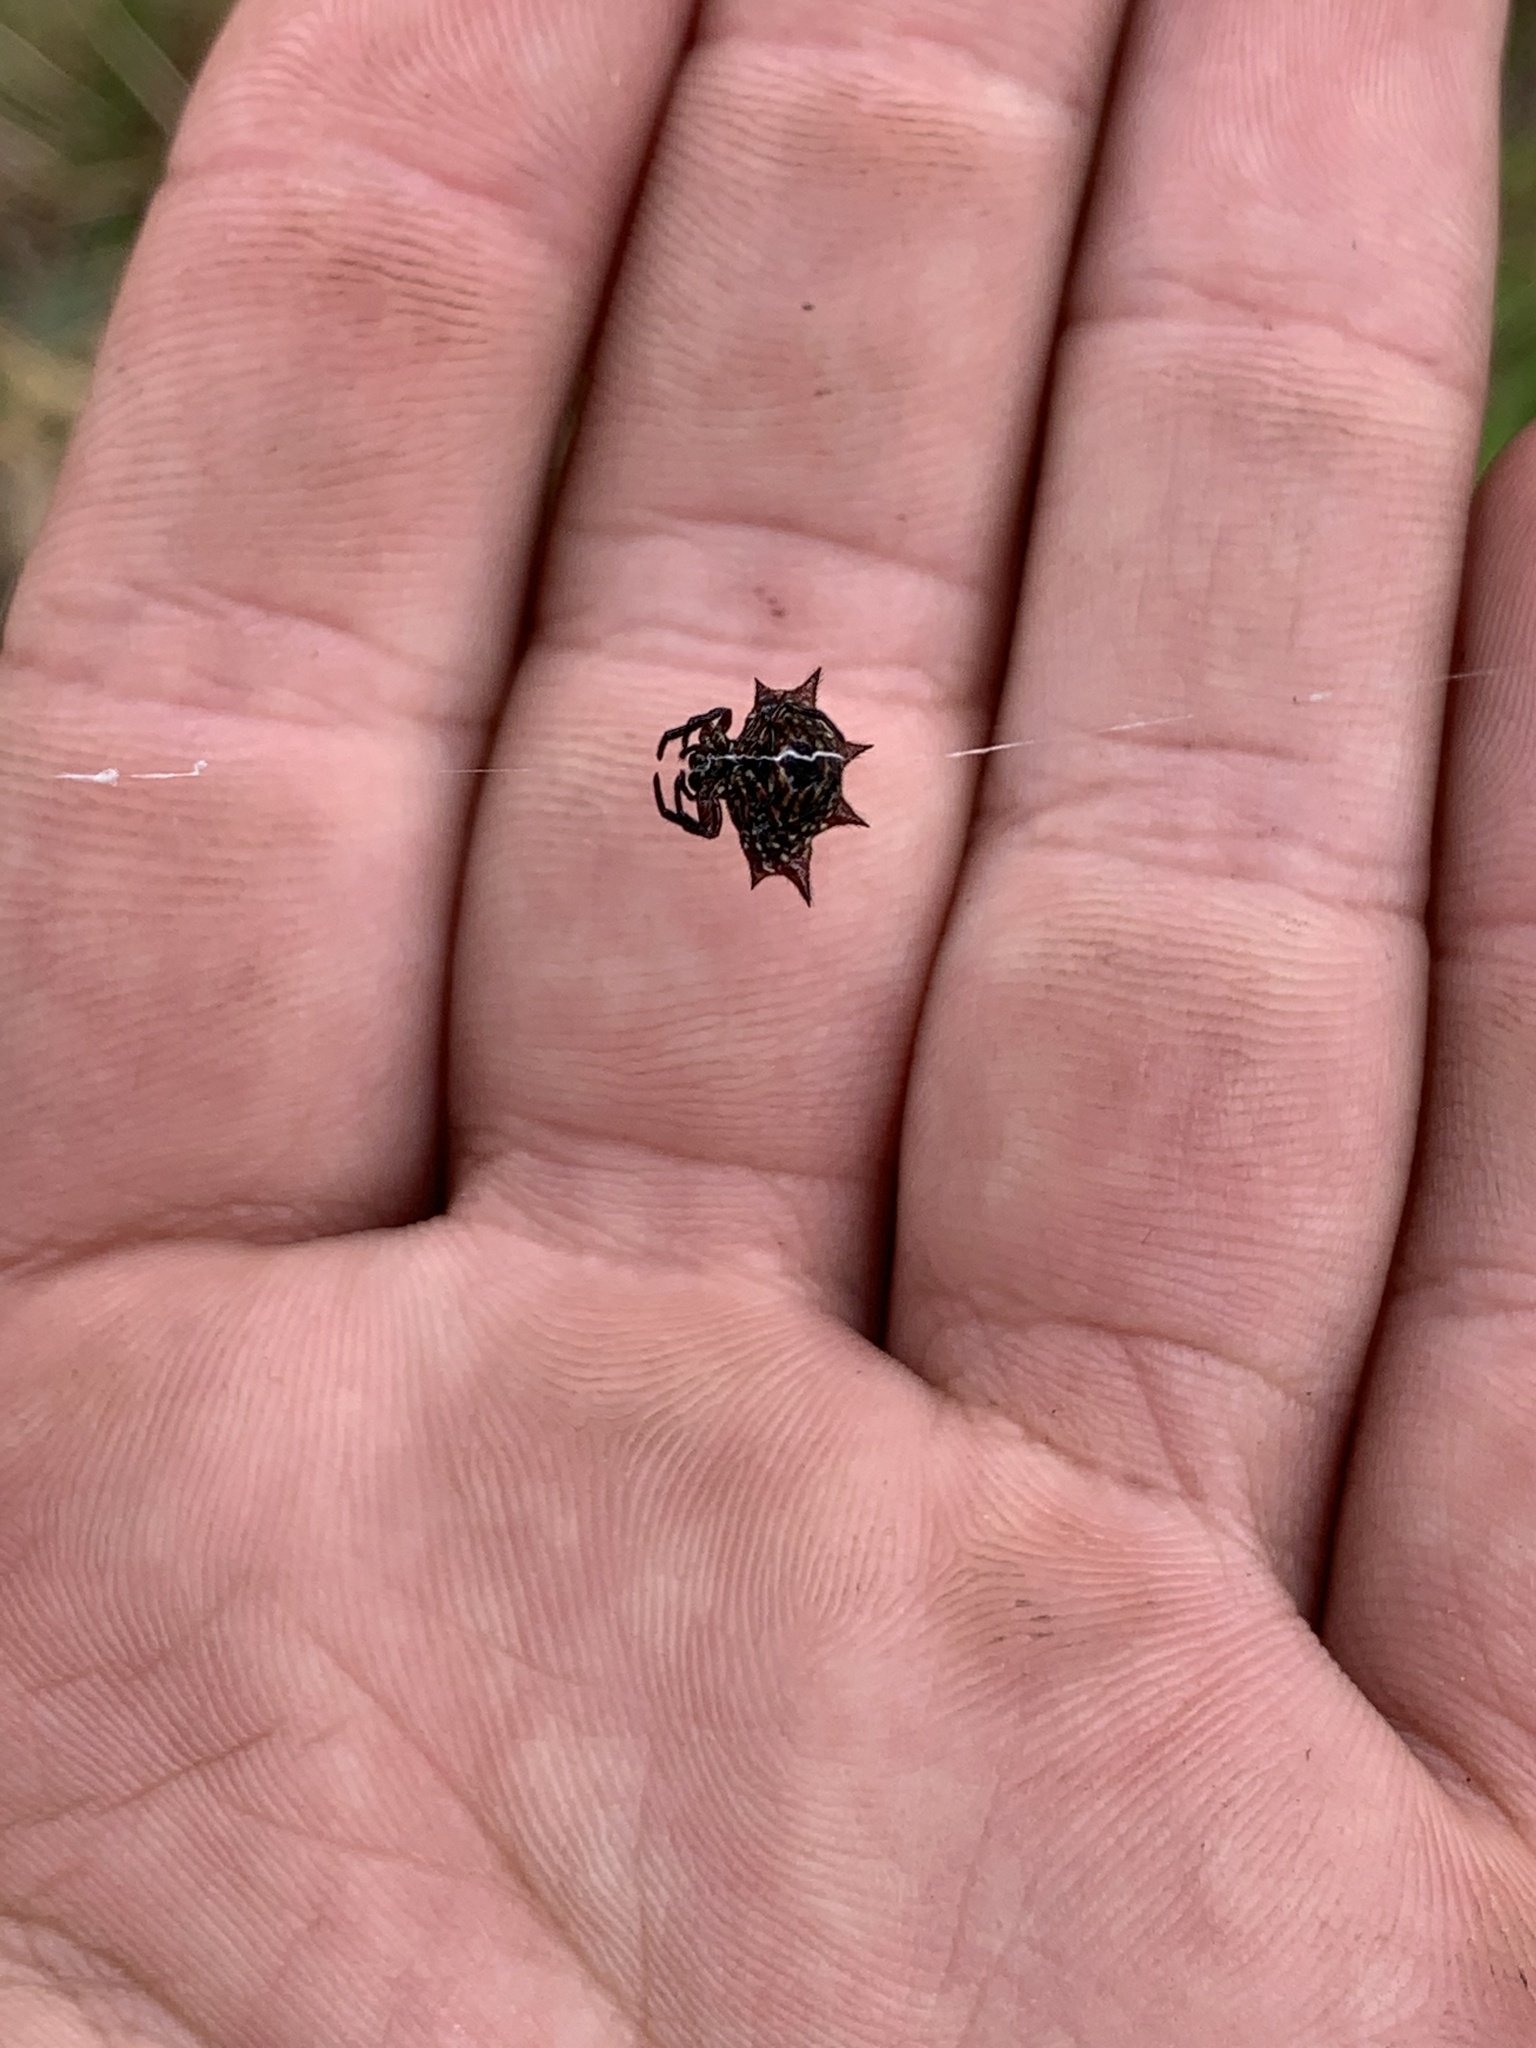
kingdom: Animalia
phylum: Arthropoda
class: Arachnida
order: Araneae
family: Araneidae
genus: Gasteracantha
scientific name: Gasteracantha cancriformis
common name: Orb weavers
